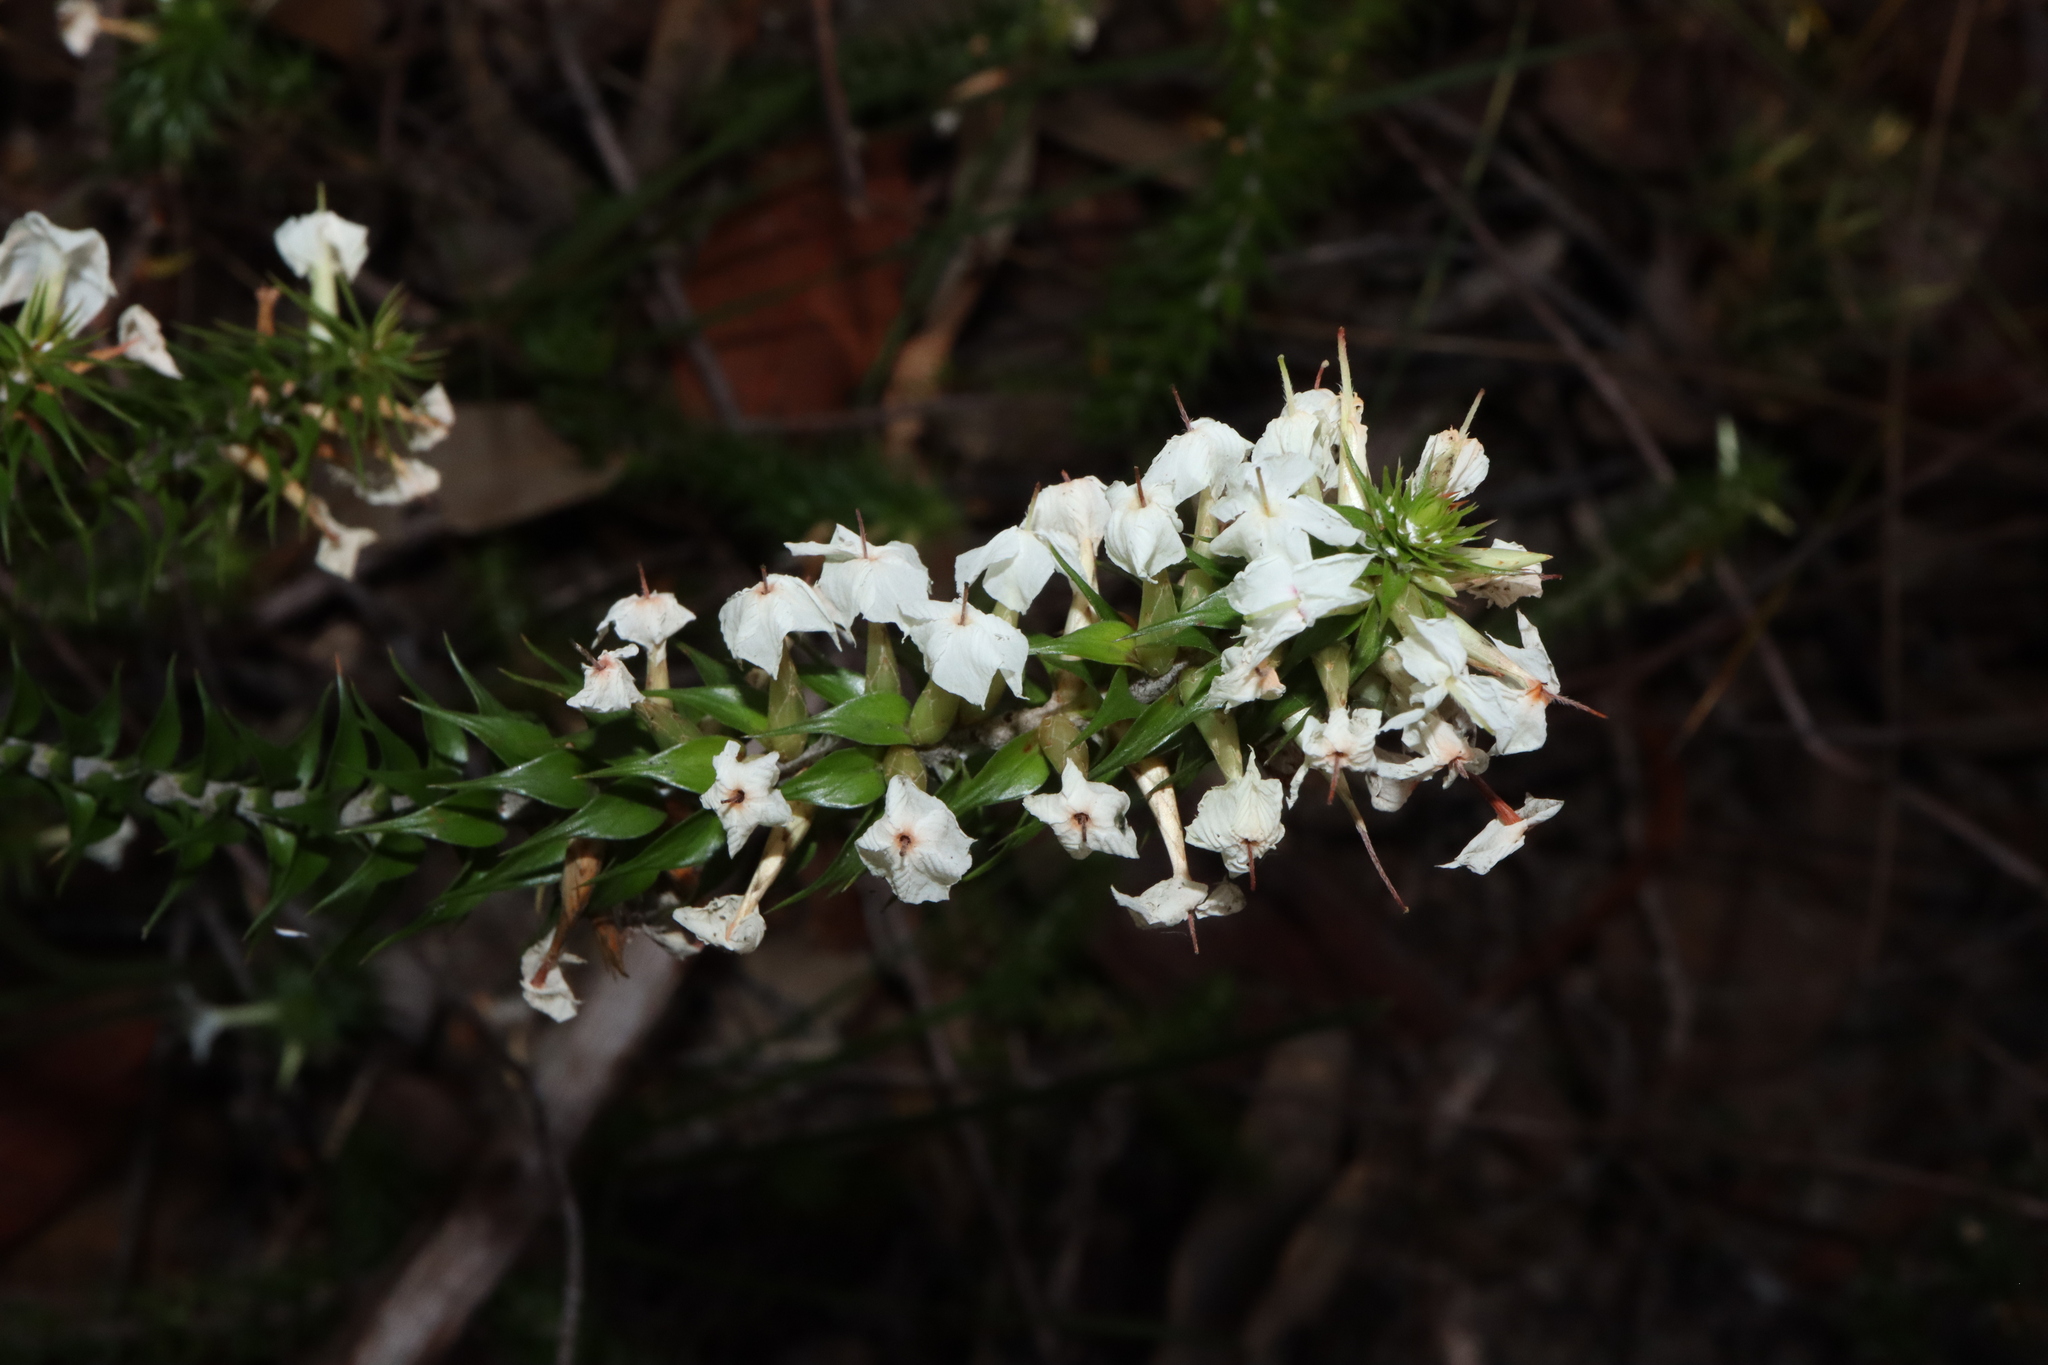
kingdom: Plantae
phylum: Tracheophyta
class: Magnoliopsida
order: Ericales
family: Ericaceae
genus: Woollsia
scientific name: Woollsia pungens
